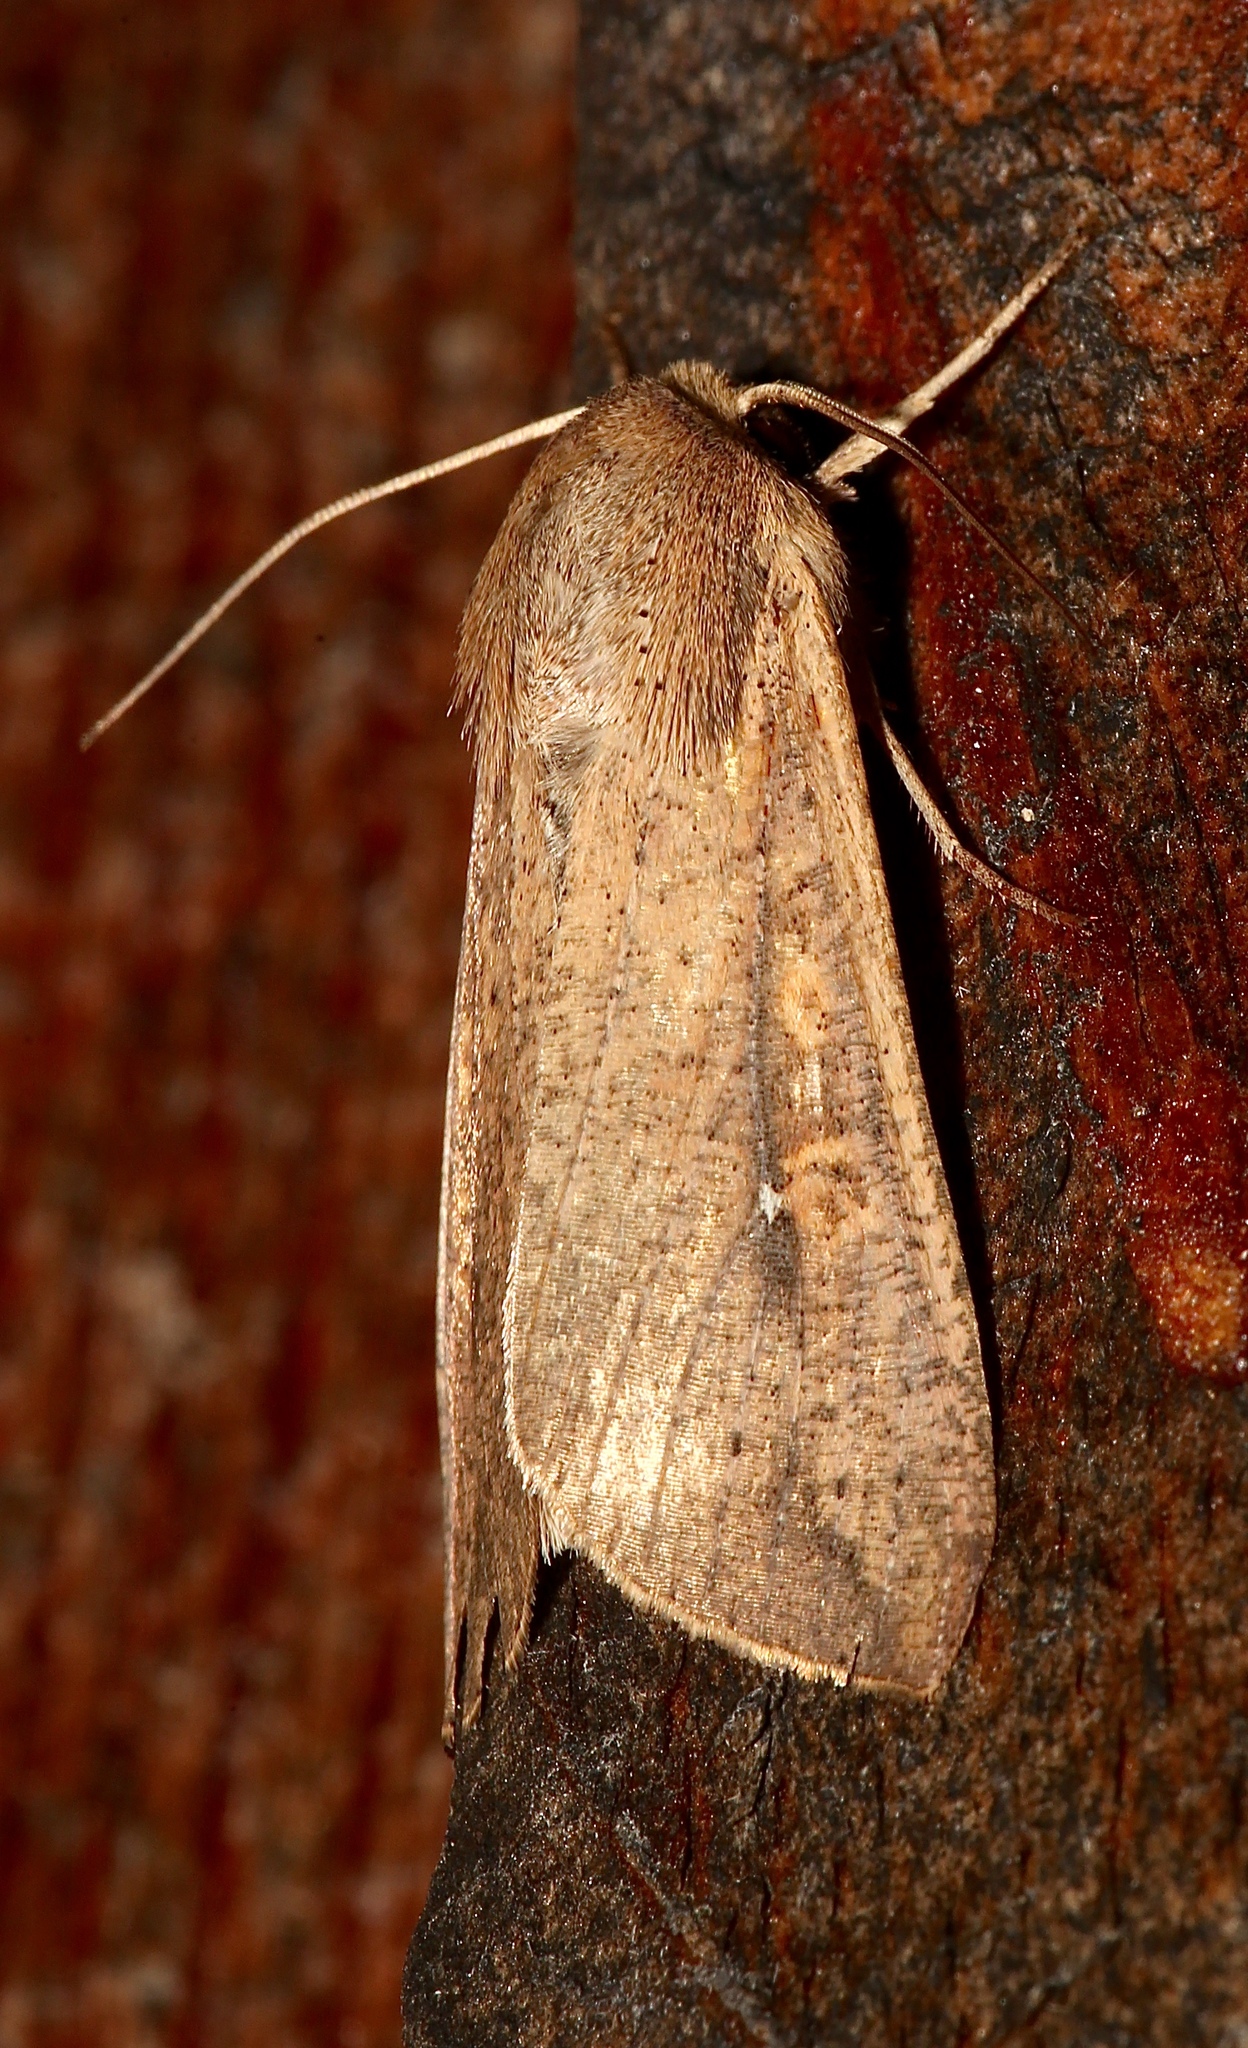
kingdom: Animalia
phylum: Arthropoda
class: Insecta
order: Lepidoptera
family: Noctuidae
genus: Mythimna
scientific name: Mythimna unipuncta
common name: White-speck
